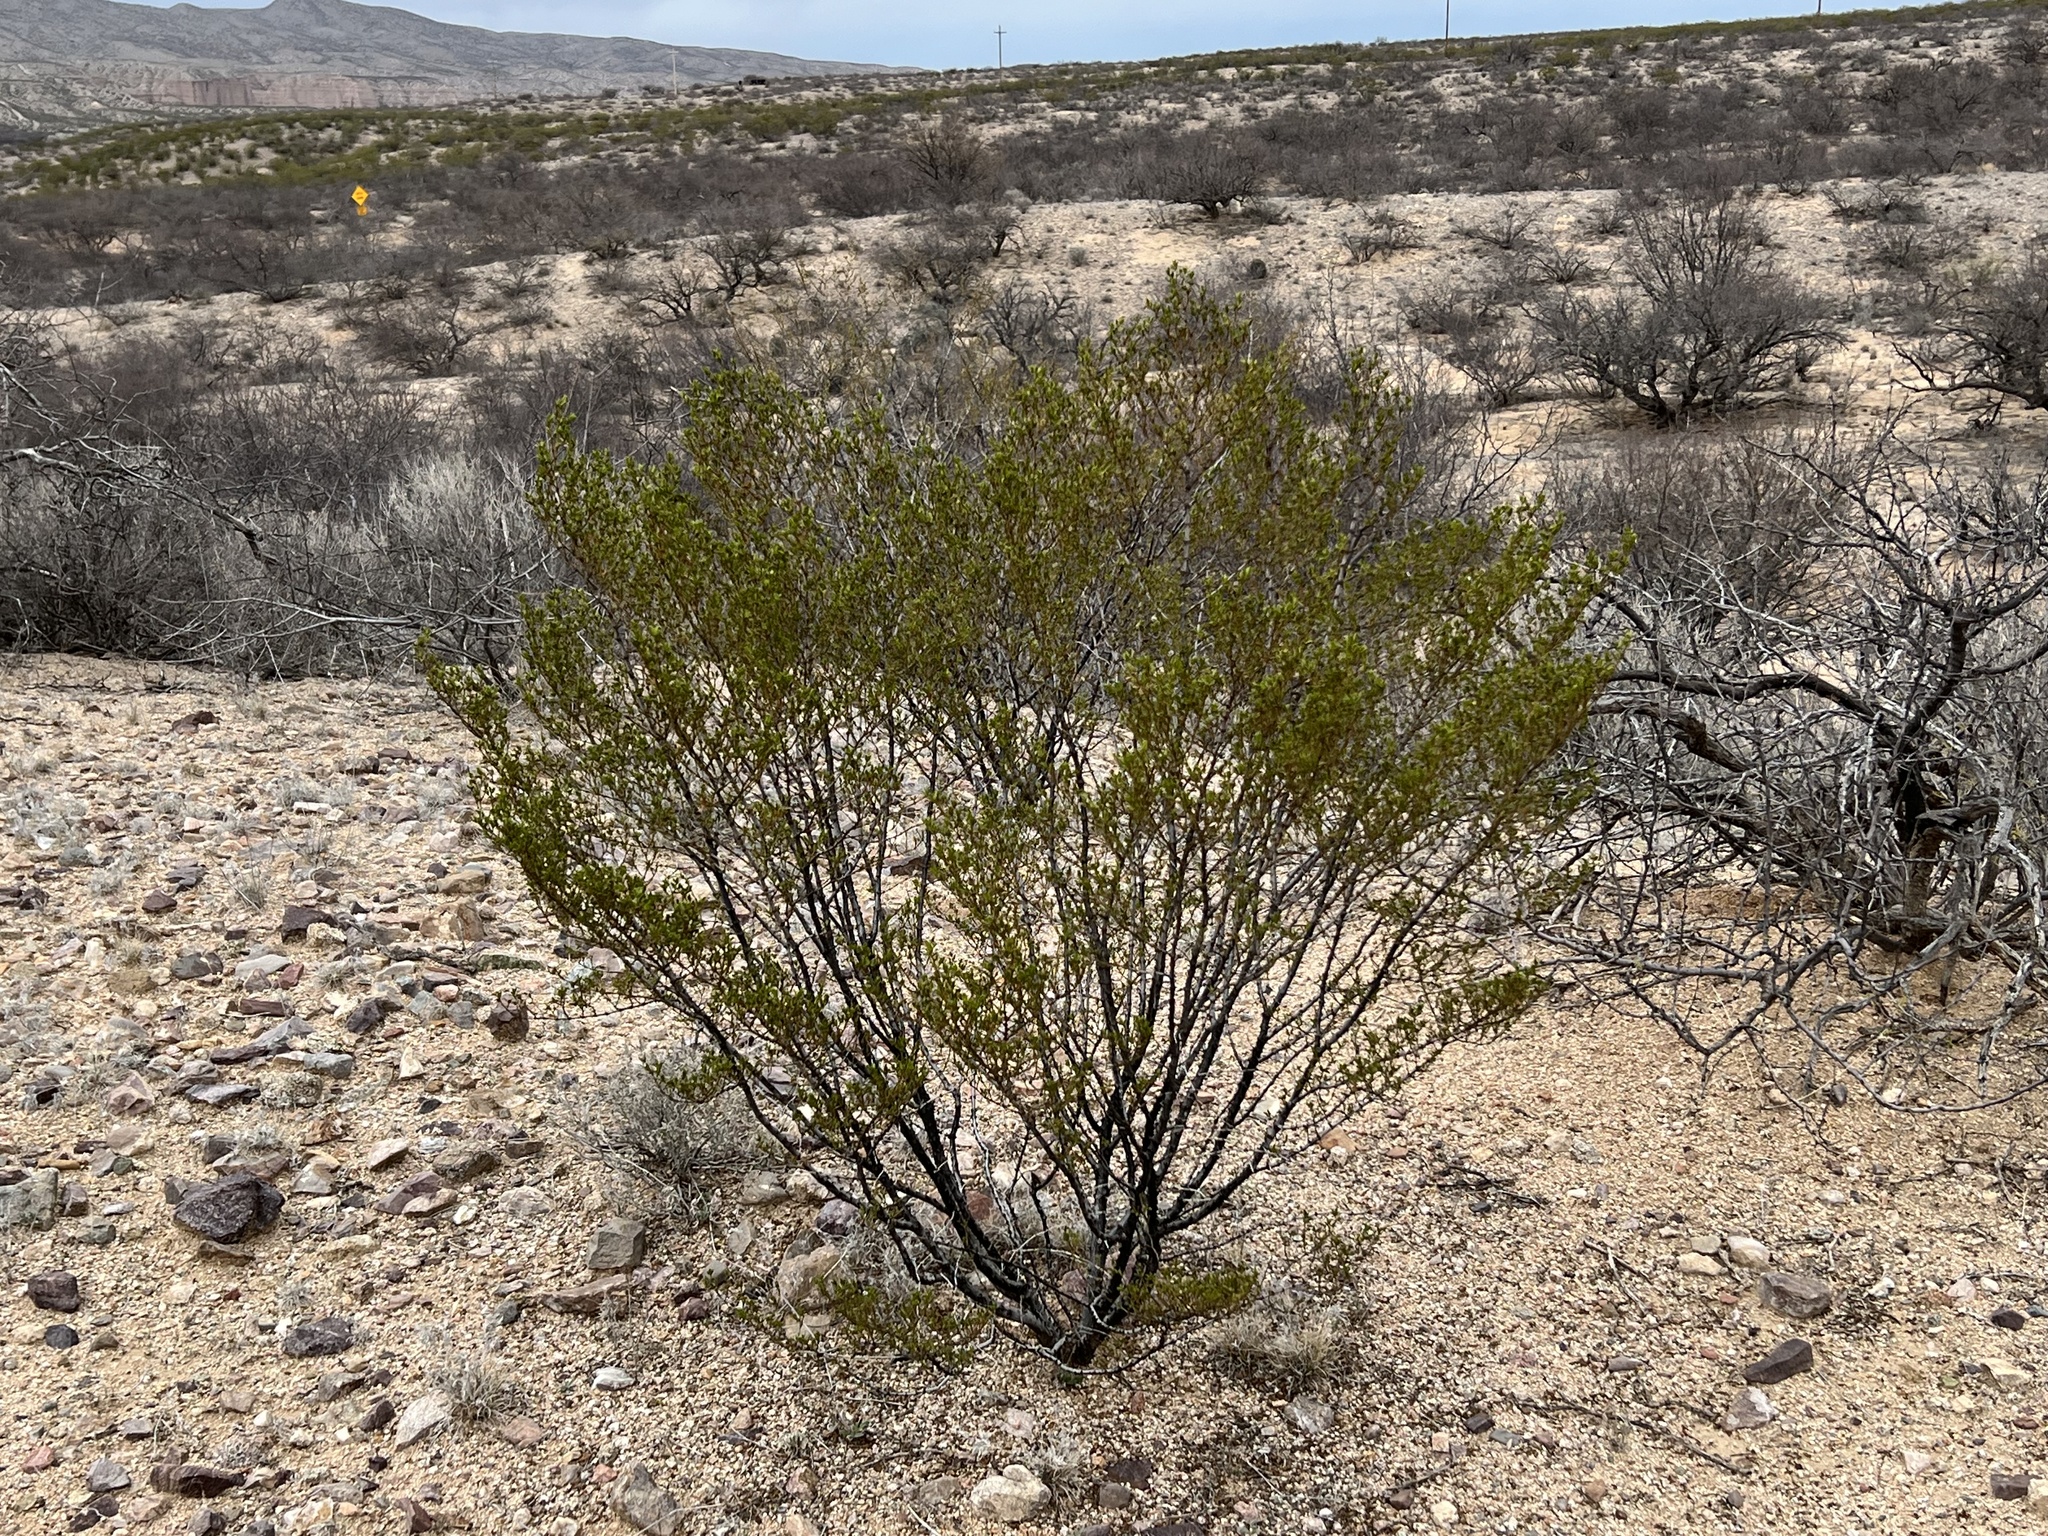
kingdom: Plantae
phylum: Tracheophyta
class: Magnoliopsida
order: Zygophyllales
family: Zygophyllaceae
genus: Larrea
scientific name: Larrea tridentata
